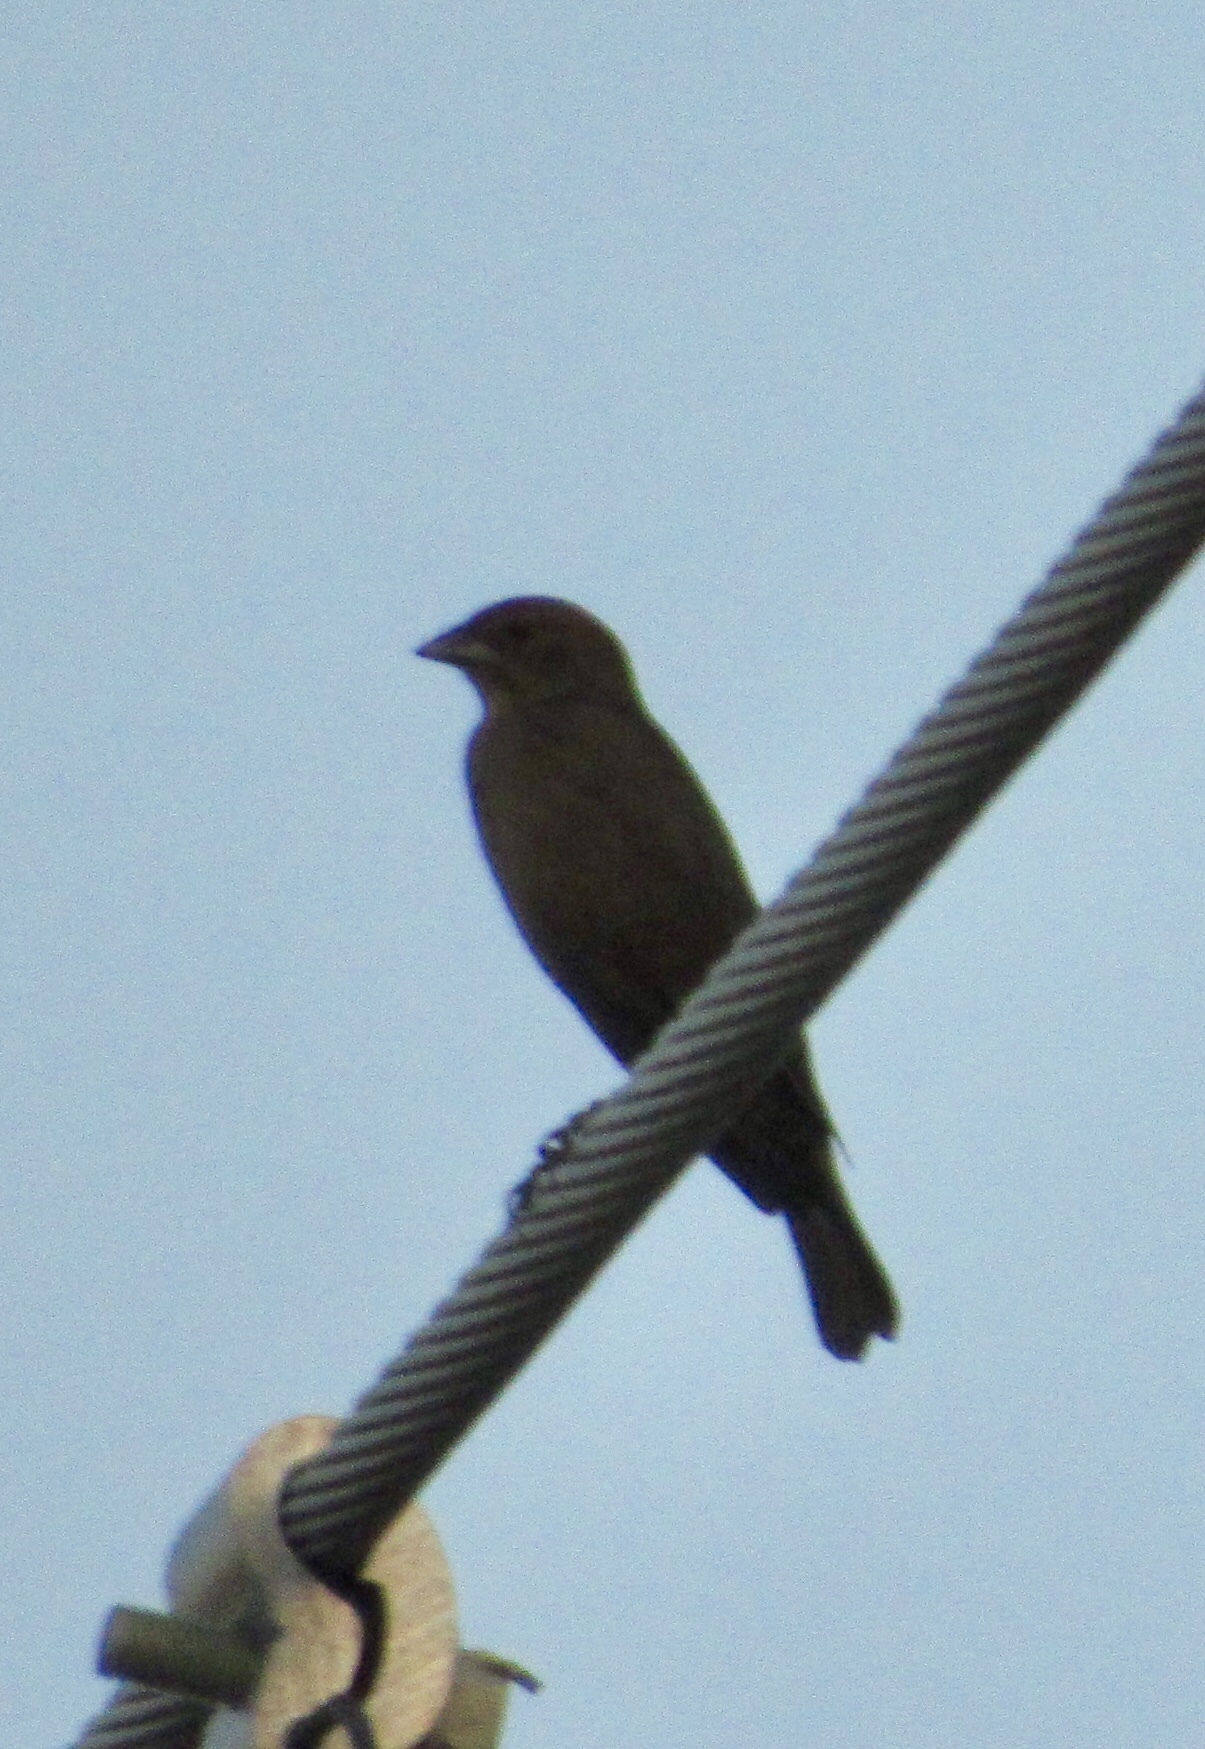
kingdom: Animalia
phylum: Chordata
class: Aves
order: Passeriformes
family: Icteridae
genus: Molothrus
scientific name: Molothrus ater
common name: Brown-headed cowbird
